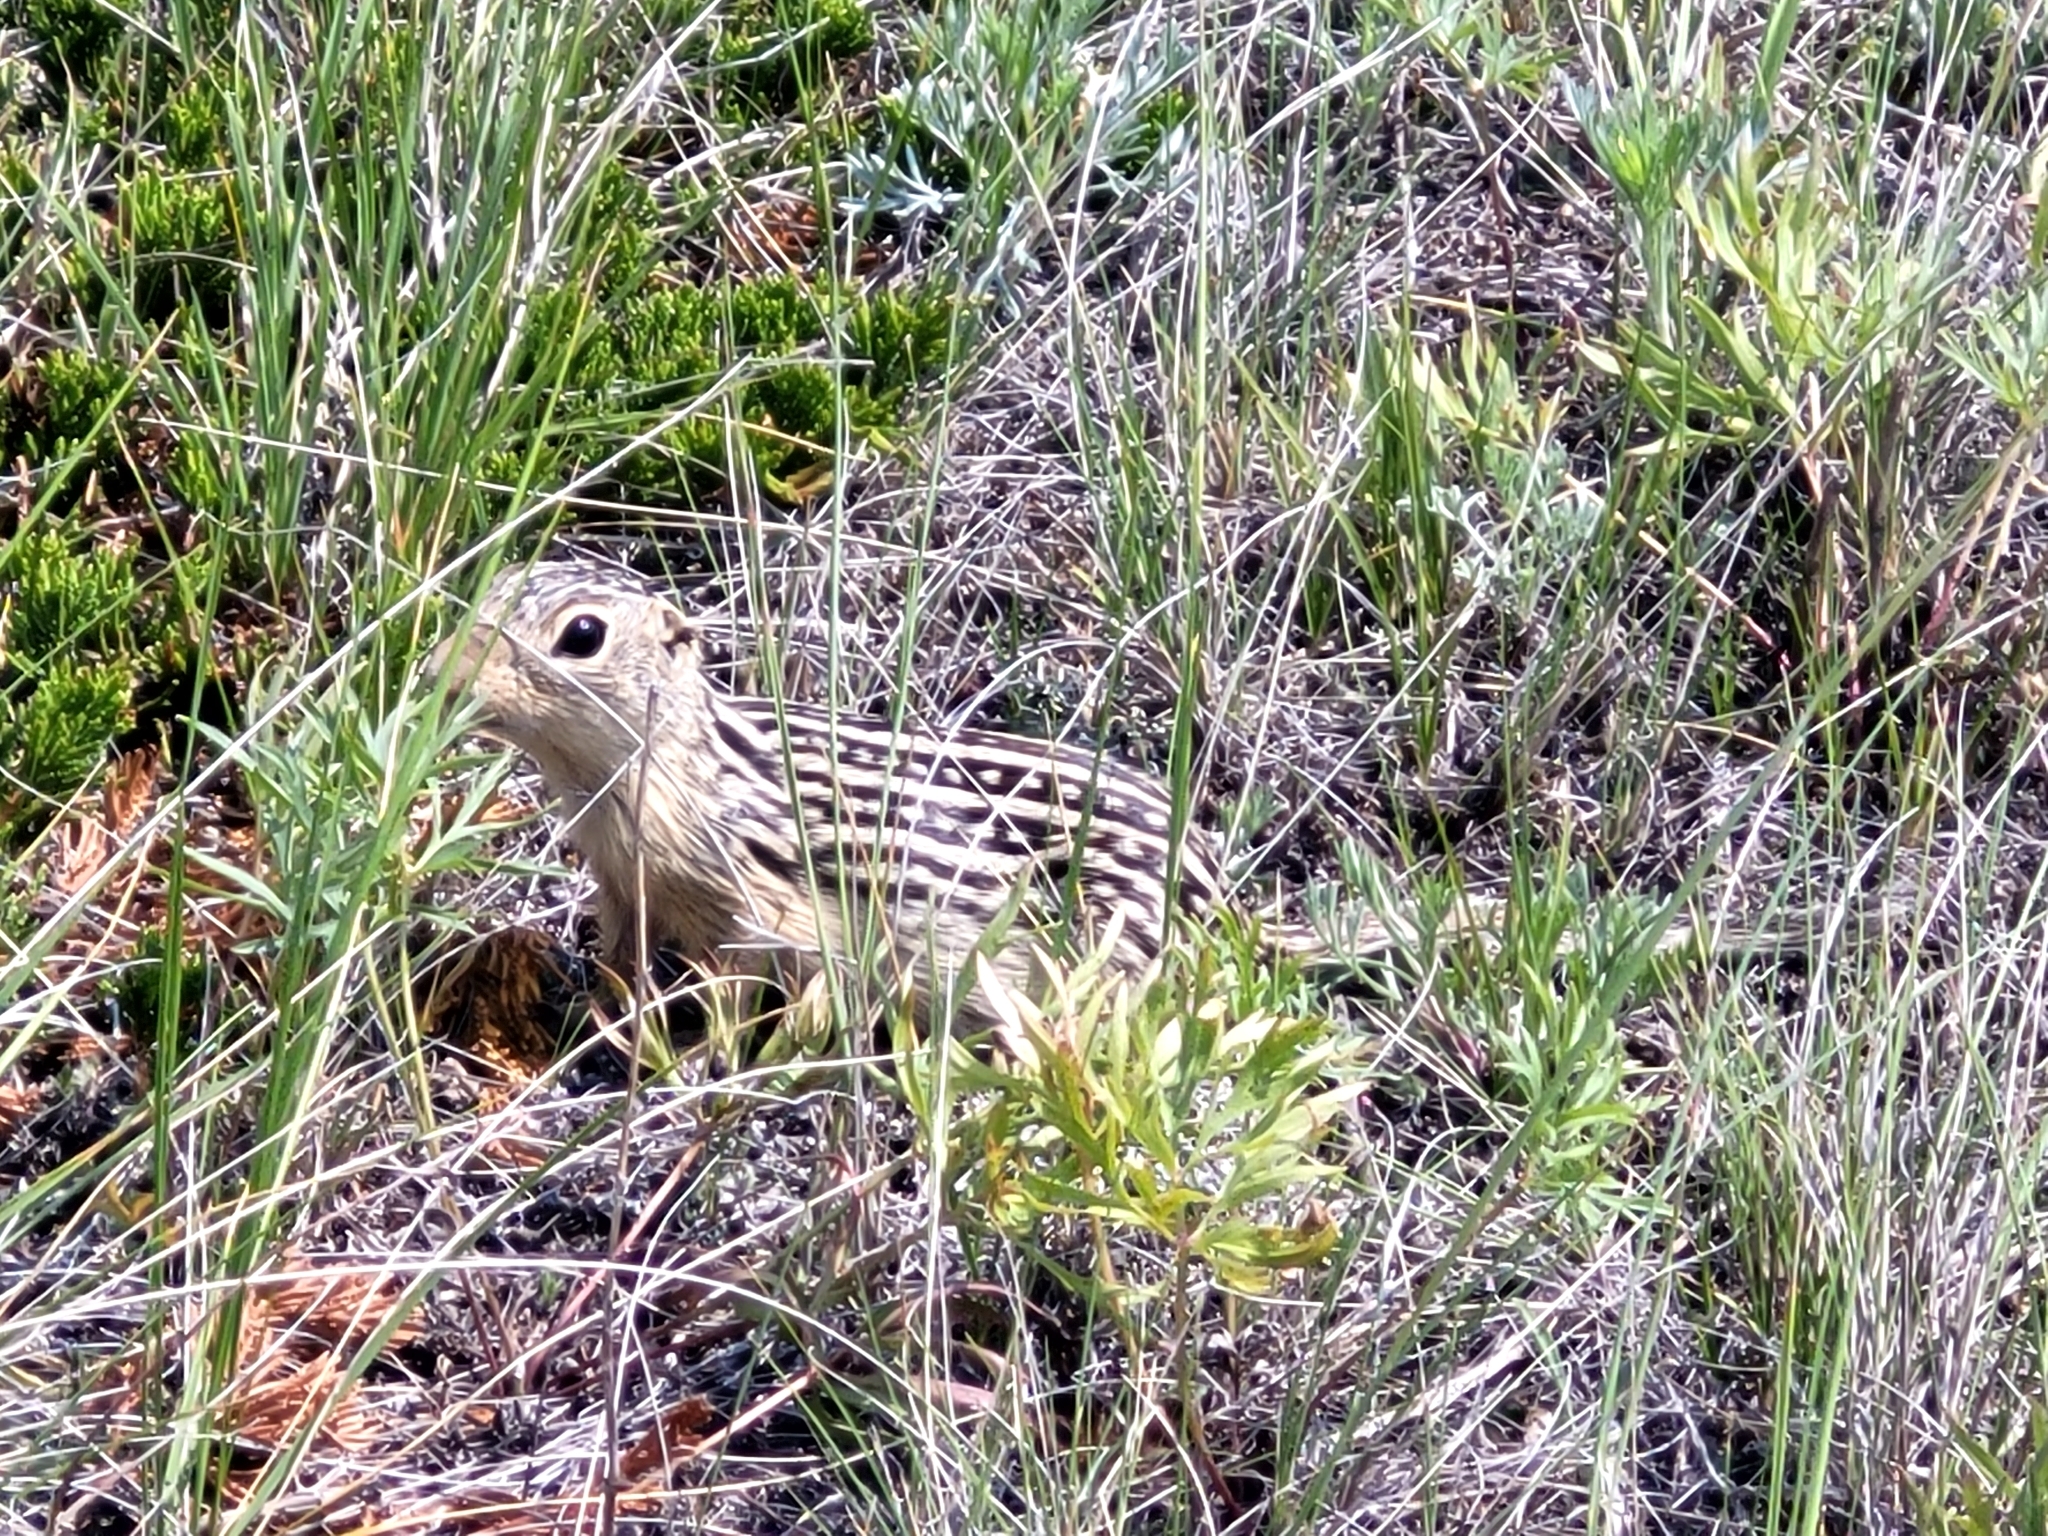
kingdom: Animalia
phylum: Chordata
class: Mammalia
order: Rodentia
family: Sciuridae
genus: Ictidomys
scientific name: Ictidomys tridecemlineatus
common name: Thirteen-lined ground squirrel
